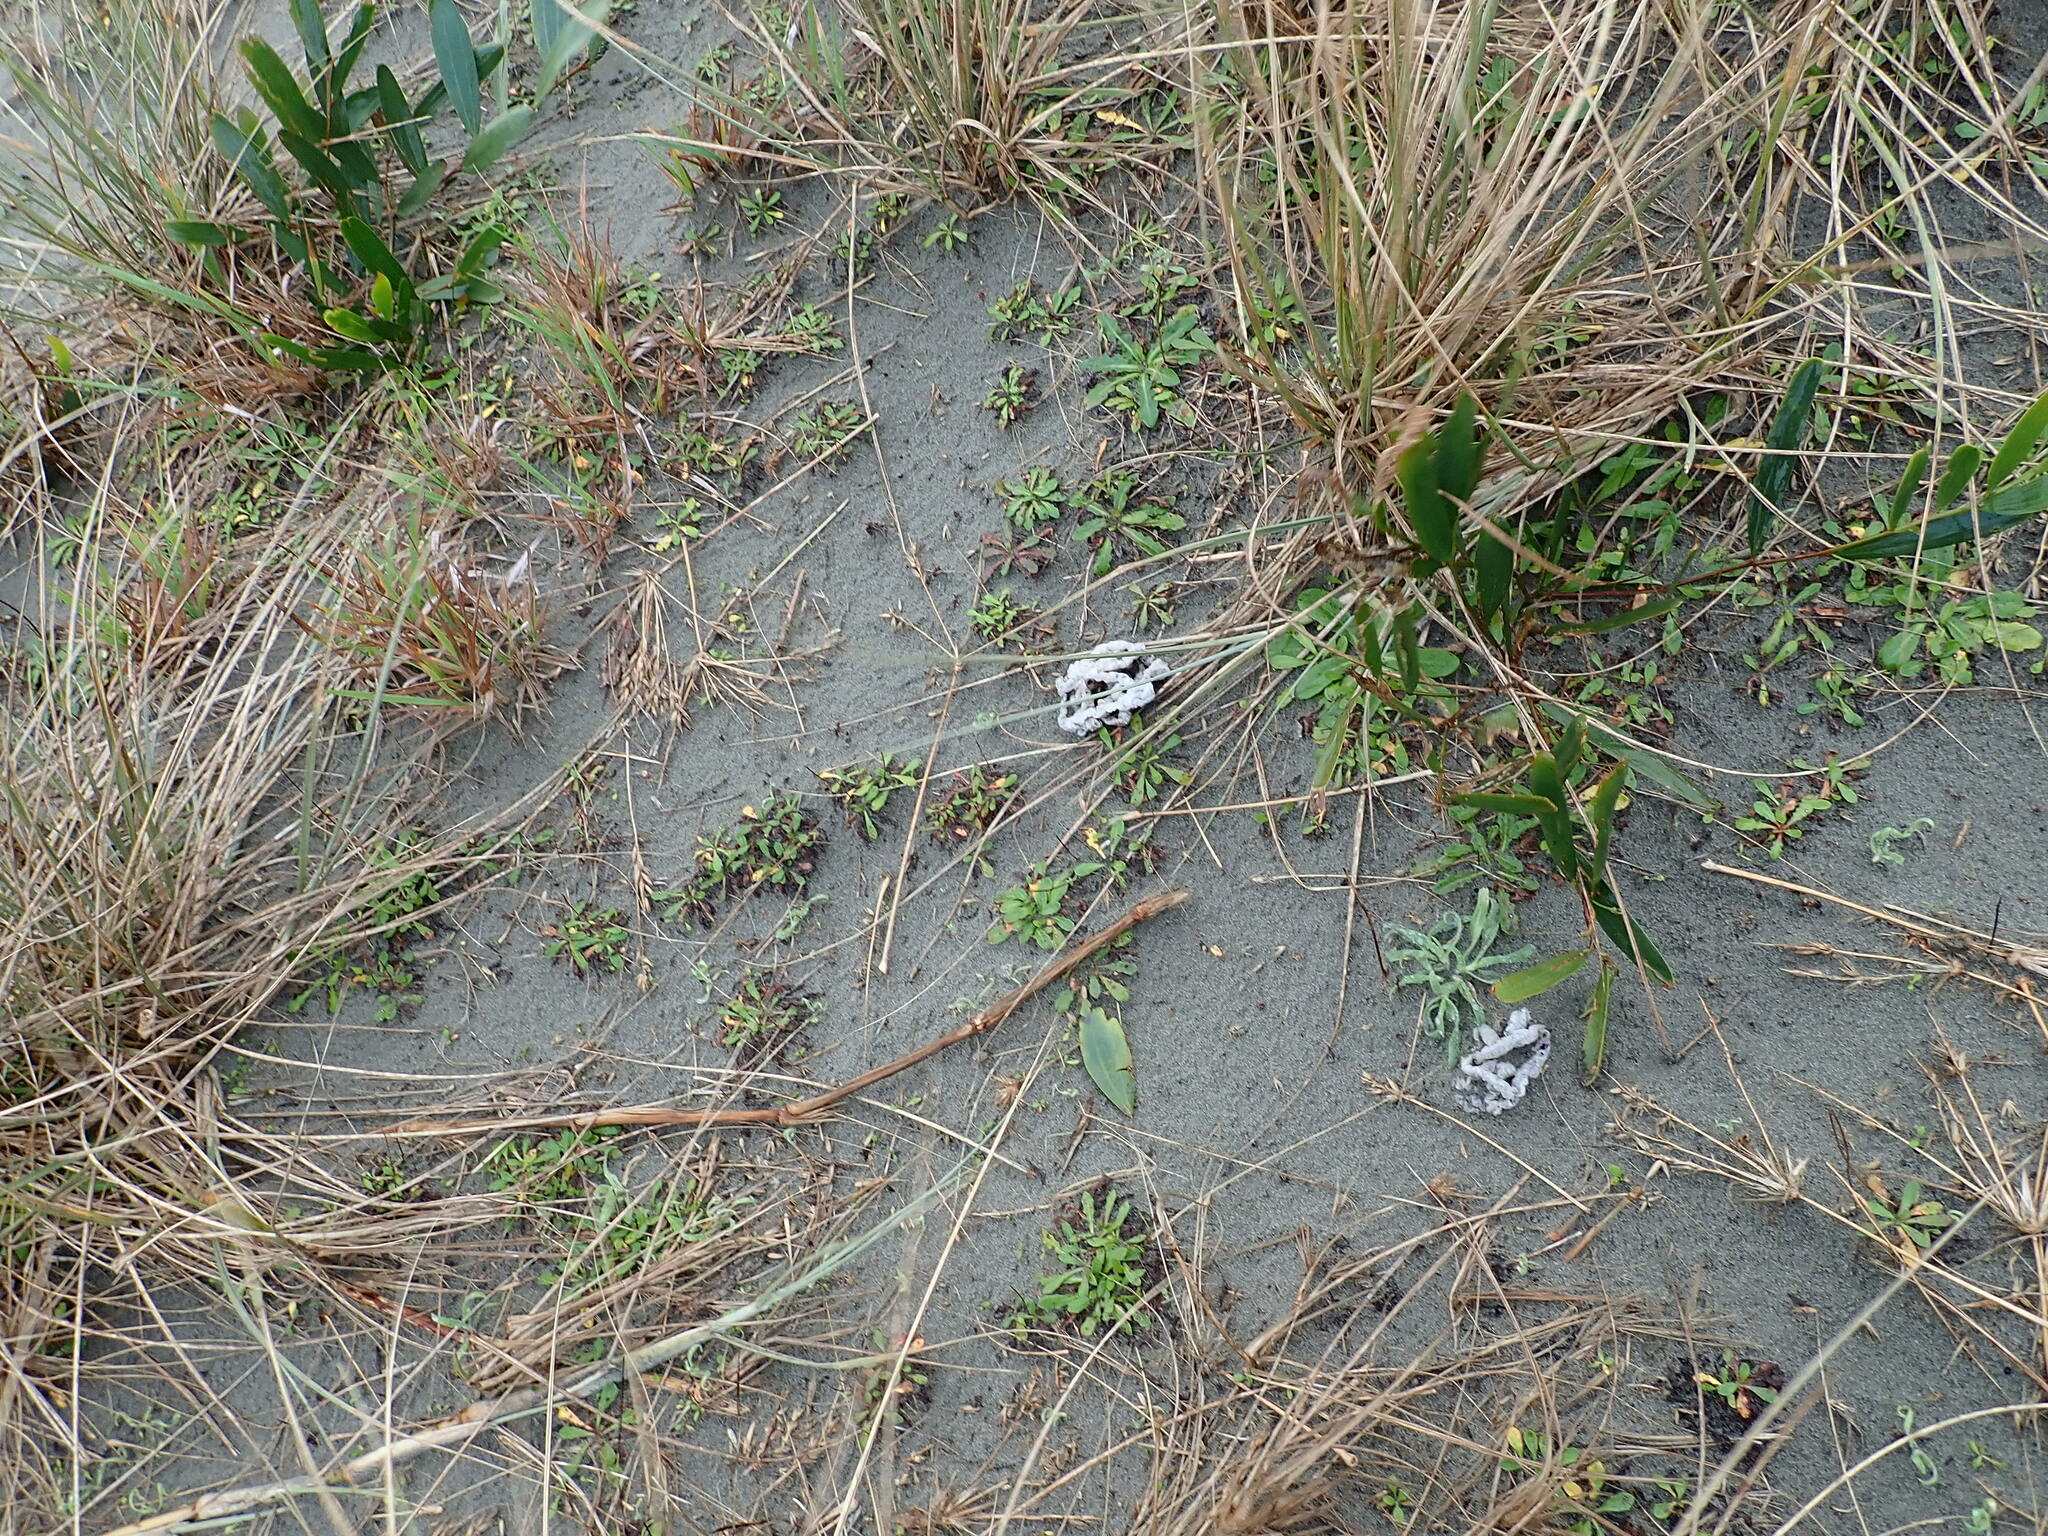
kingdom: Fungi
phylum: Basidiomycota
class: Agaricomycetes
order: Phallales
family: Phallaceae
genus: Ileodictyon
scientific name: Ileodictyon cibarium
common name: Basket fungus
